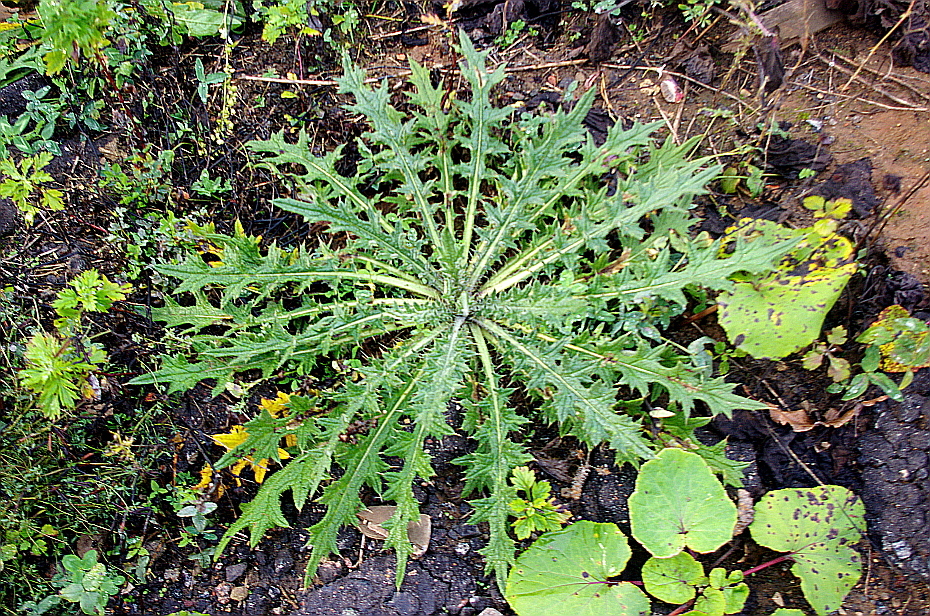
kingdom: Plantae
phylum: Tracheophyta
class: Magnoliopsida
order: Asterales
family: Asteraceae
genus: Cirsium
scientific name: Cirsium vulgare
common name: Bull thistle
